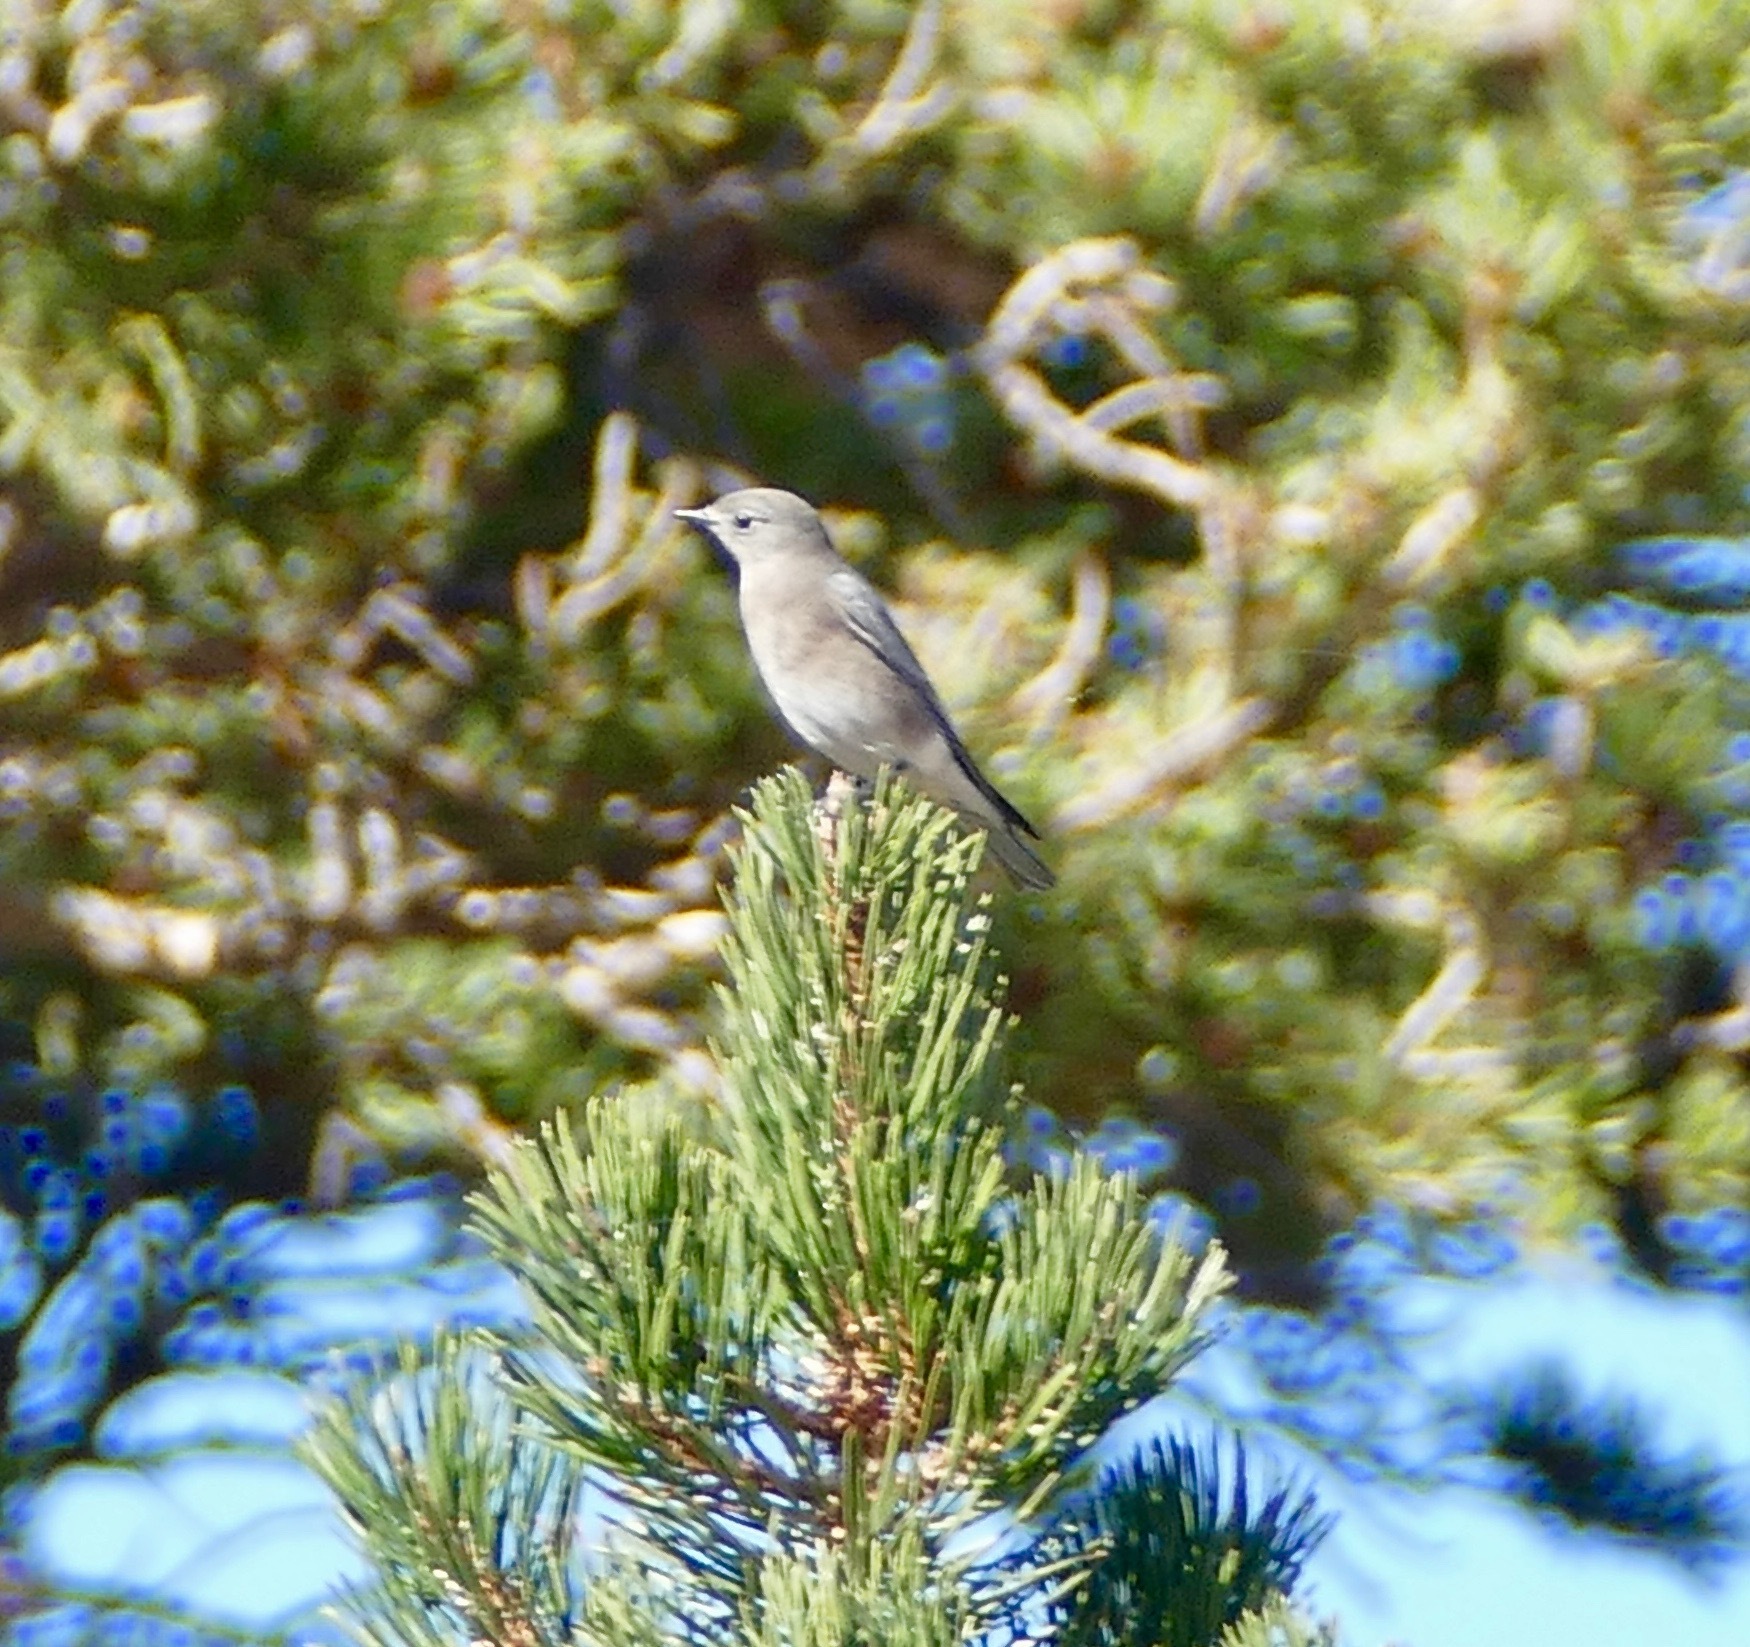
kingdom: Animalia
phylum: Chordata
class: Aves
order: Passeriformes
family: Turdidae
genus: Sialia
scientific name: Sialia currucoides
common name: Mountain bluebird
